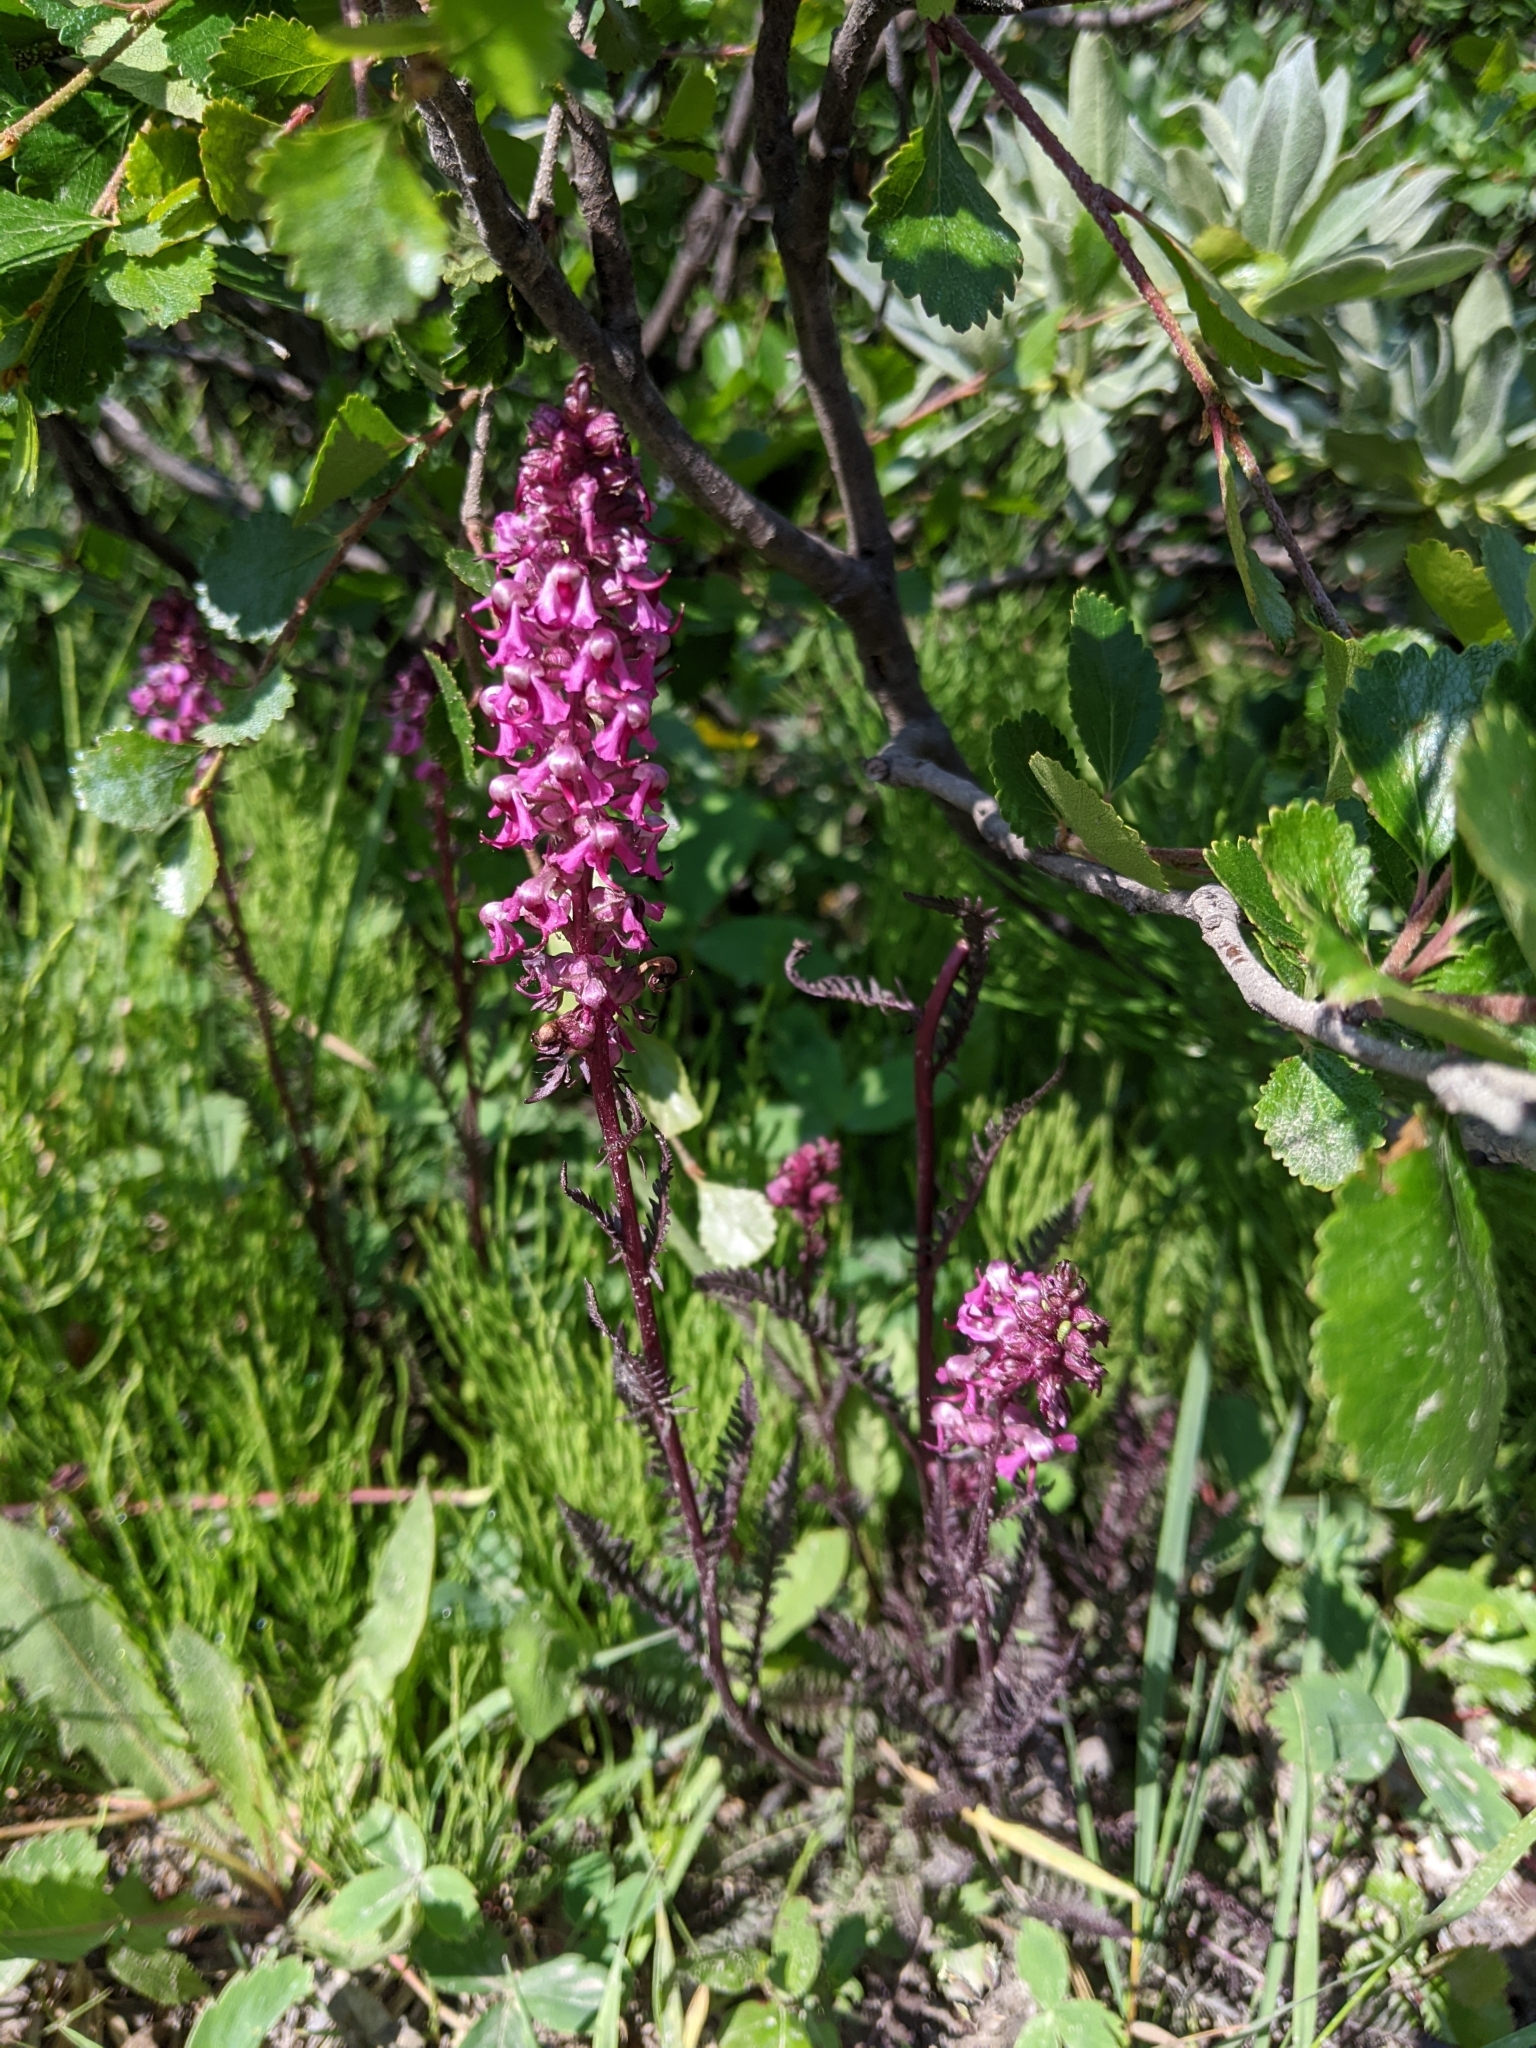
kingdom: Plantae
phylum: Tracheophyta
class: Magnoliopsida
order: Lamiales
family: Orobanchaceae
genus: Pedicularis
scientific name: Pedicularis groenlandica
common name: Elephant's-head
